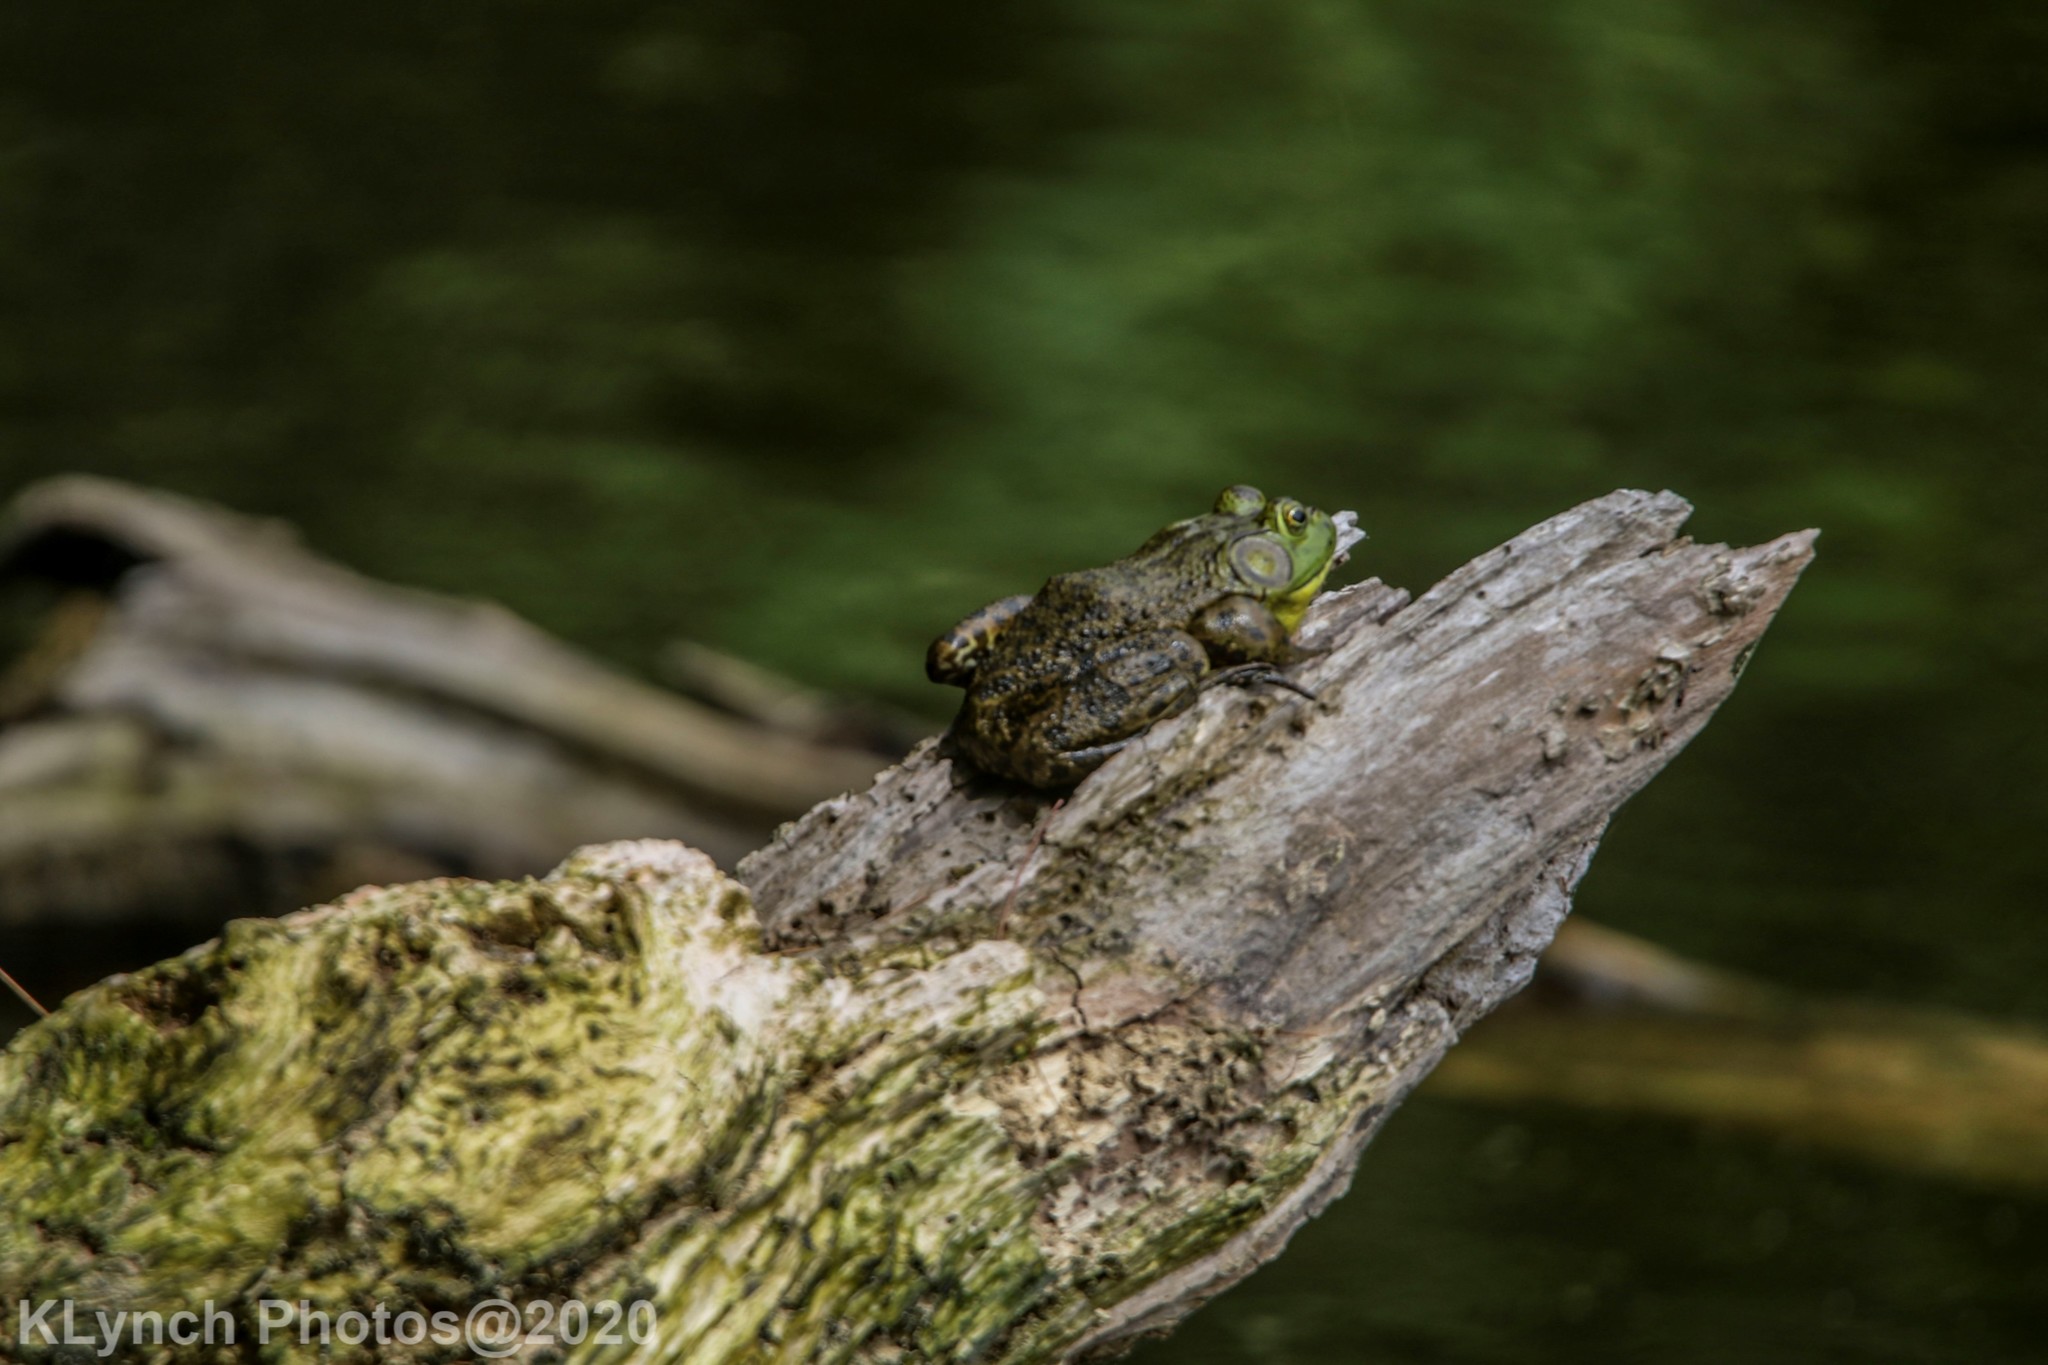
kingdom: Animalia
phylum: Chordata
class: Amphibia
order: Anura
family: Ranidae
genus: Lithobates
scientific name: Lithobates catesbeianus
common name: American bullfrog
